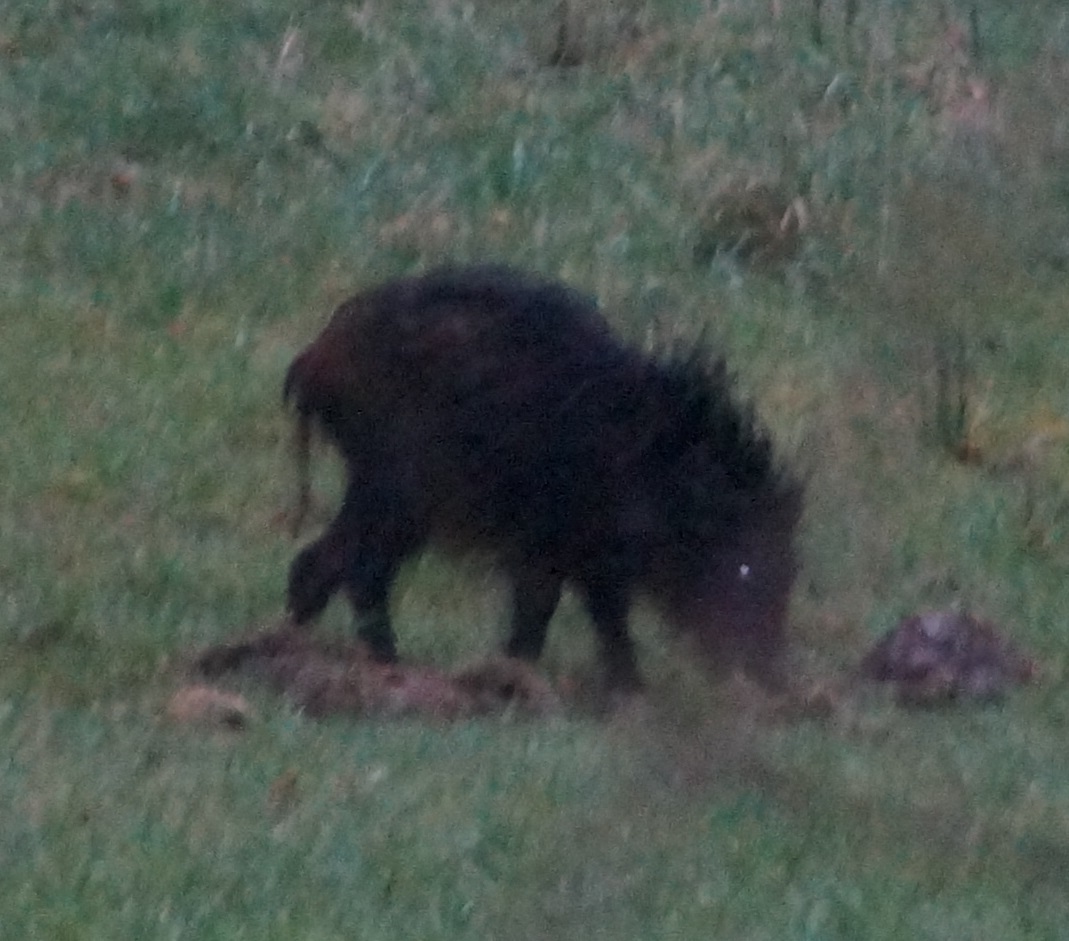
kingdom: Animalia
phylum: Chordata
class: Mammalia
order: Artiodactyla
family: Suidae
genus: Sus
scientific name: Sus scrofa
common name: Wild boar
